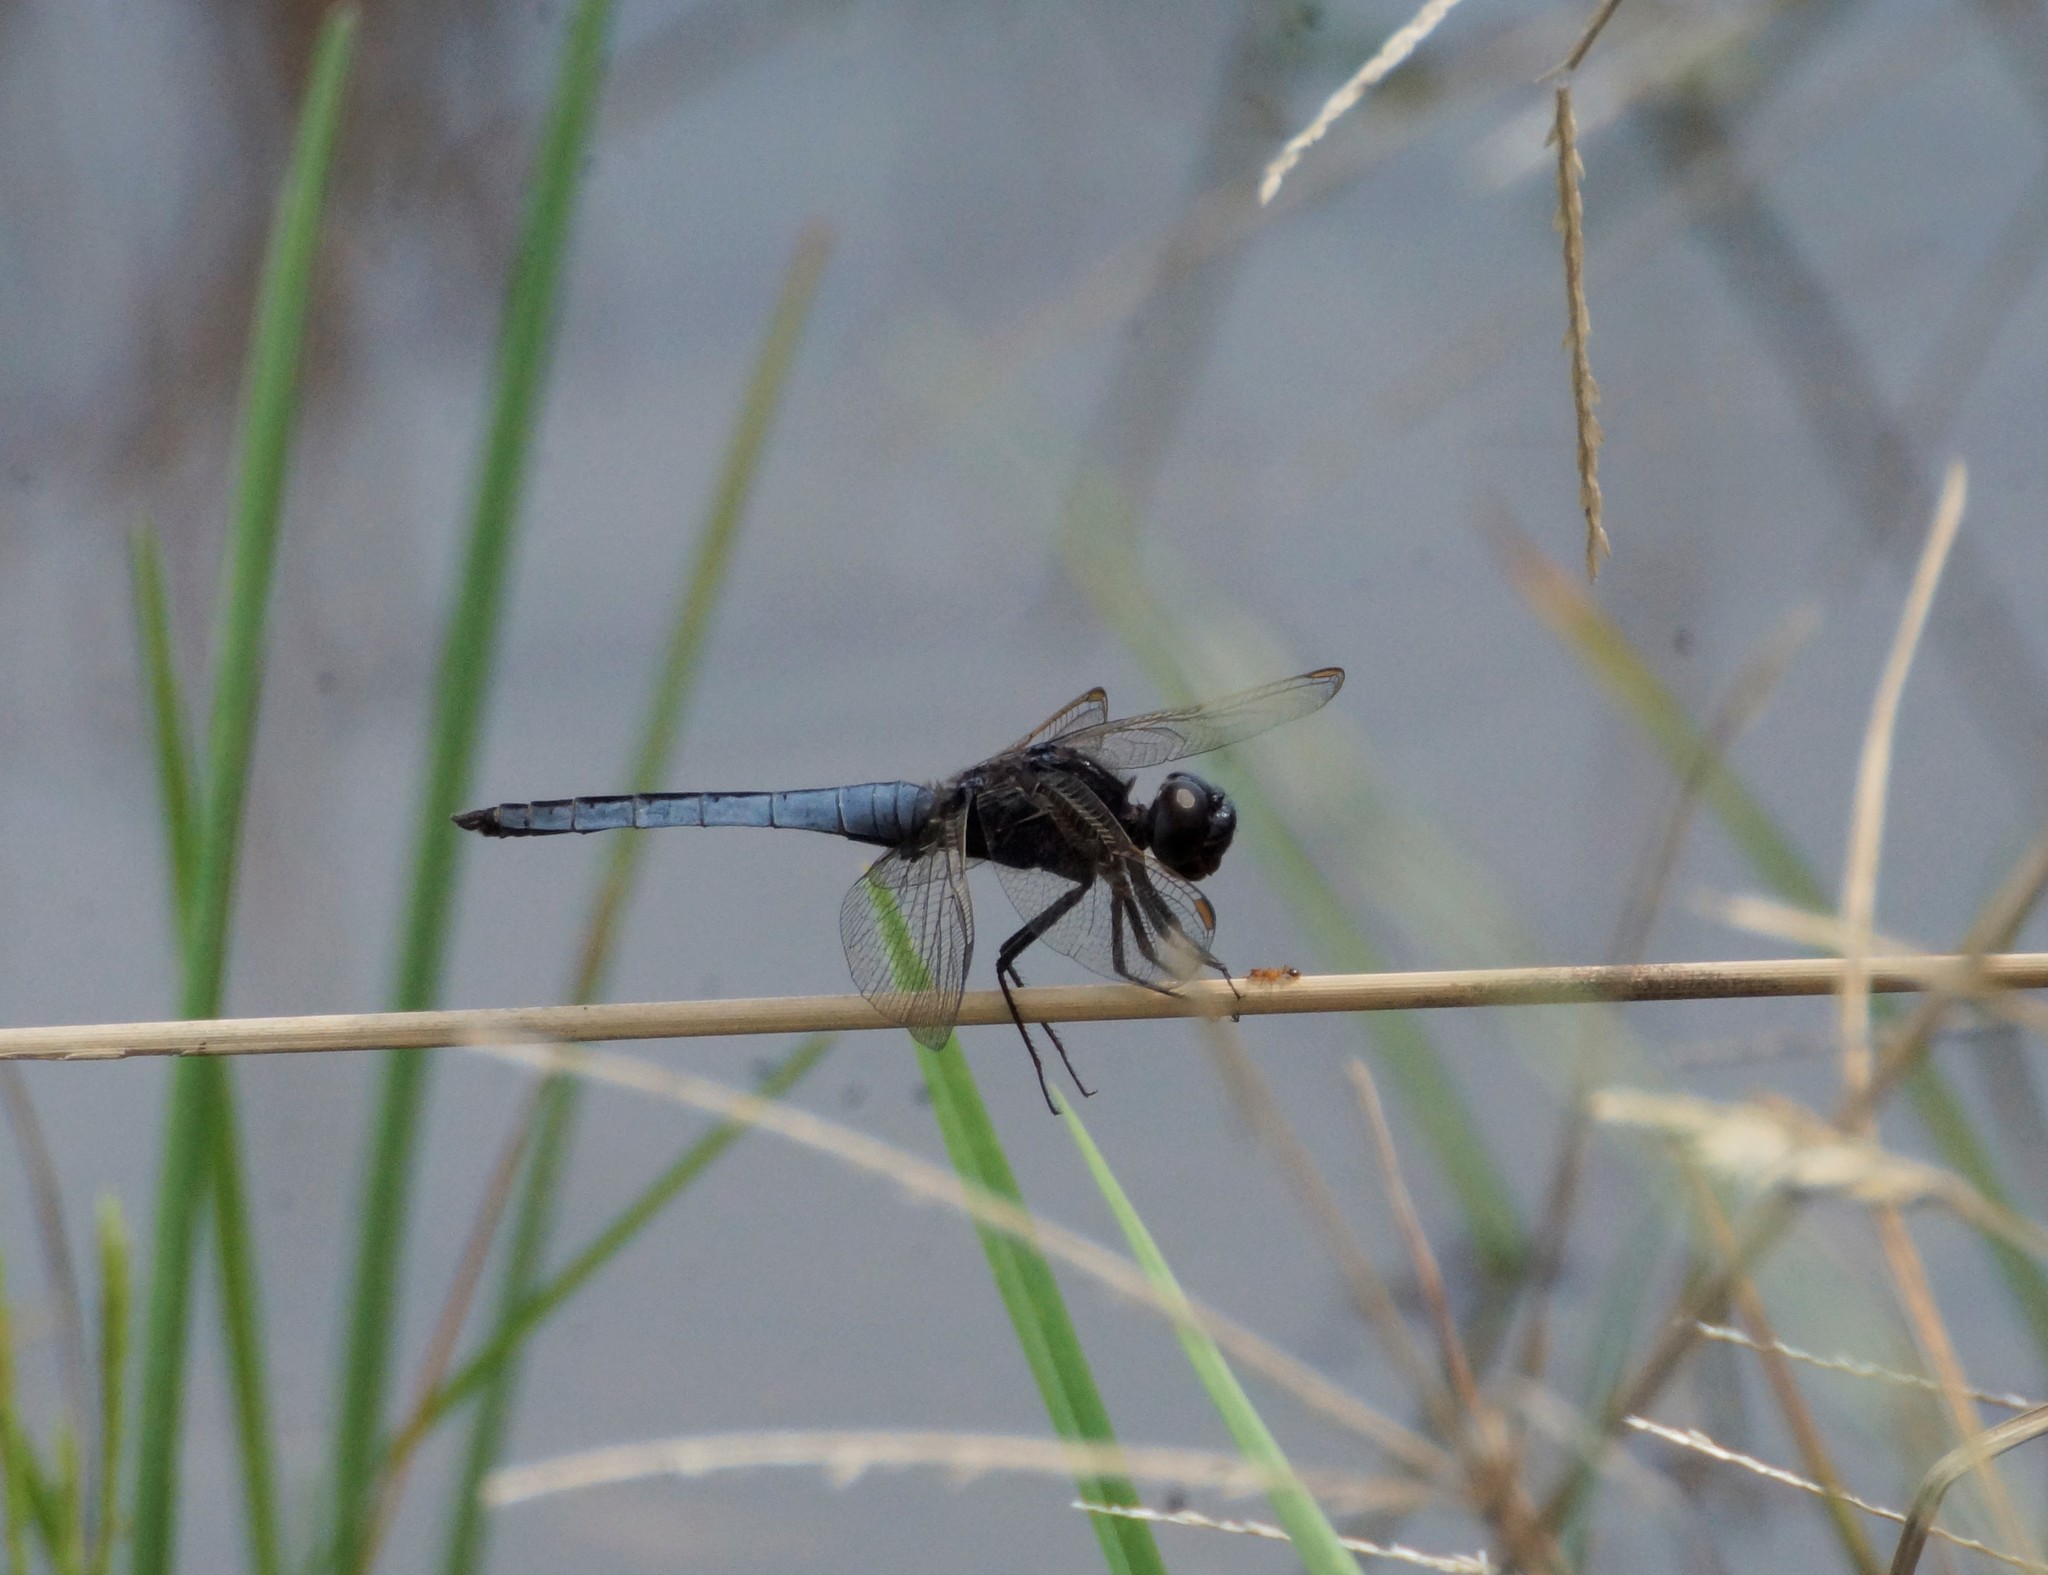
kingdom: Animalia
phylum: Arthropoda
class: Insecta
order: Odonata
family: Libellulidae
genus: Crocothemis
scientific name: Crocothemis nigrifrons
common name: Black-headed skimmer
